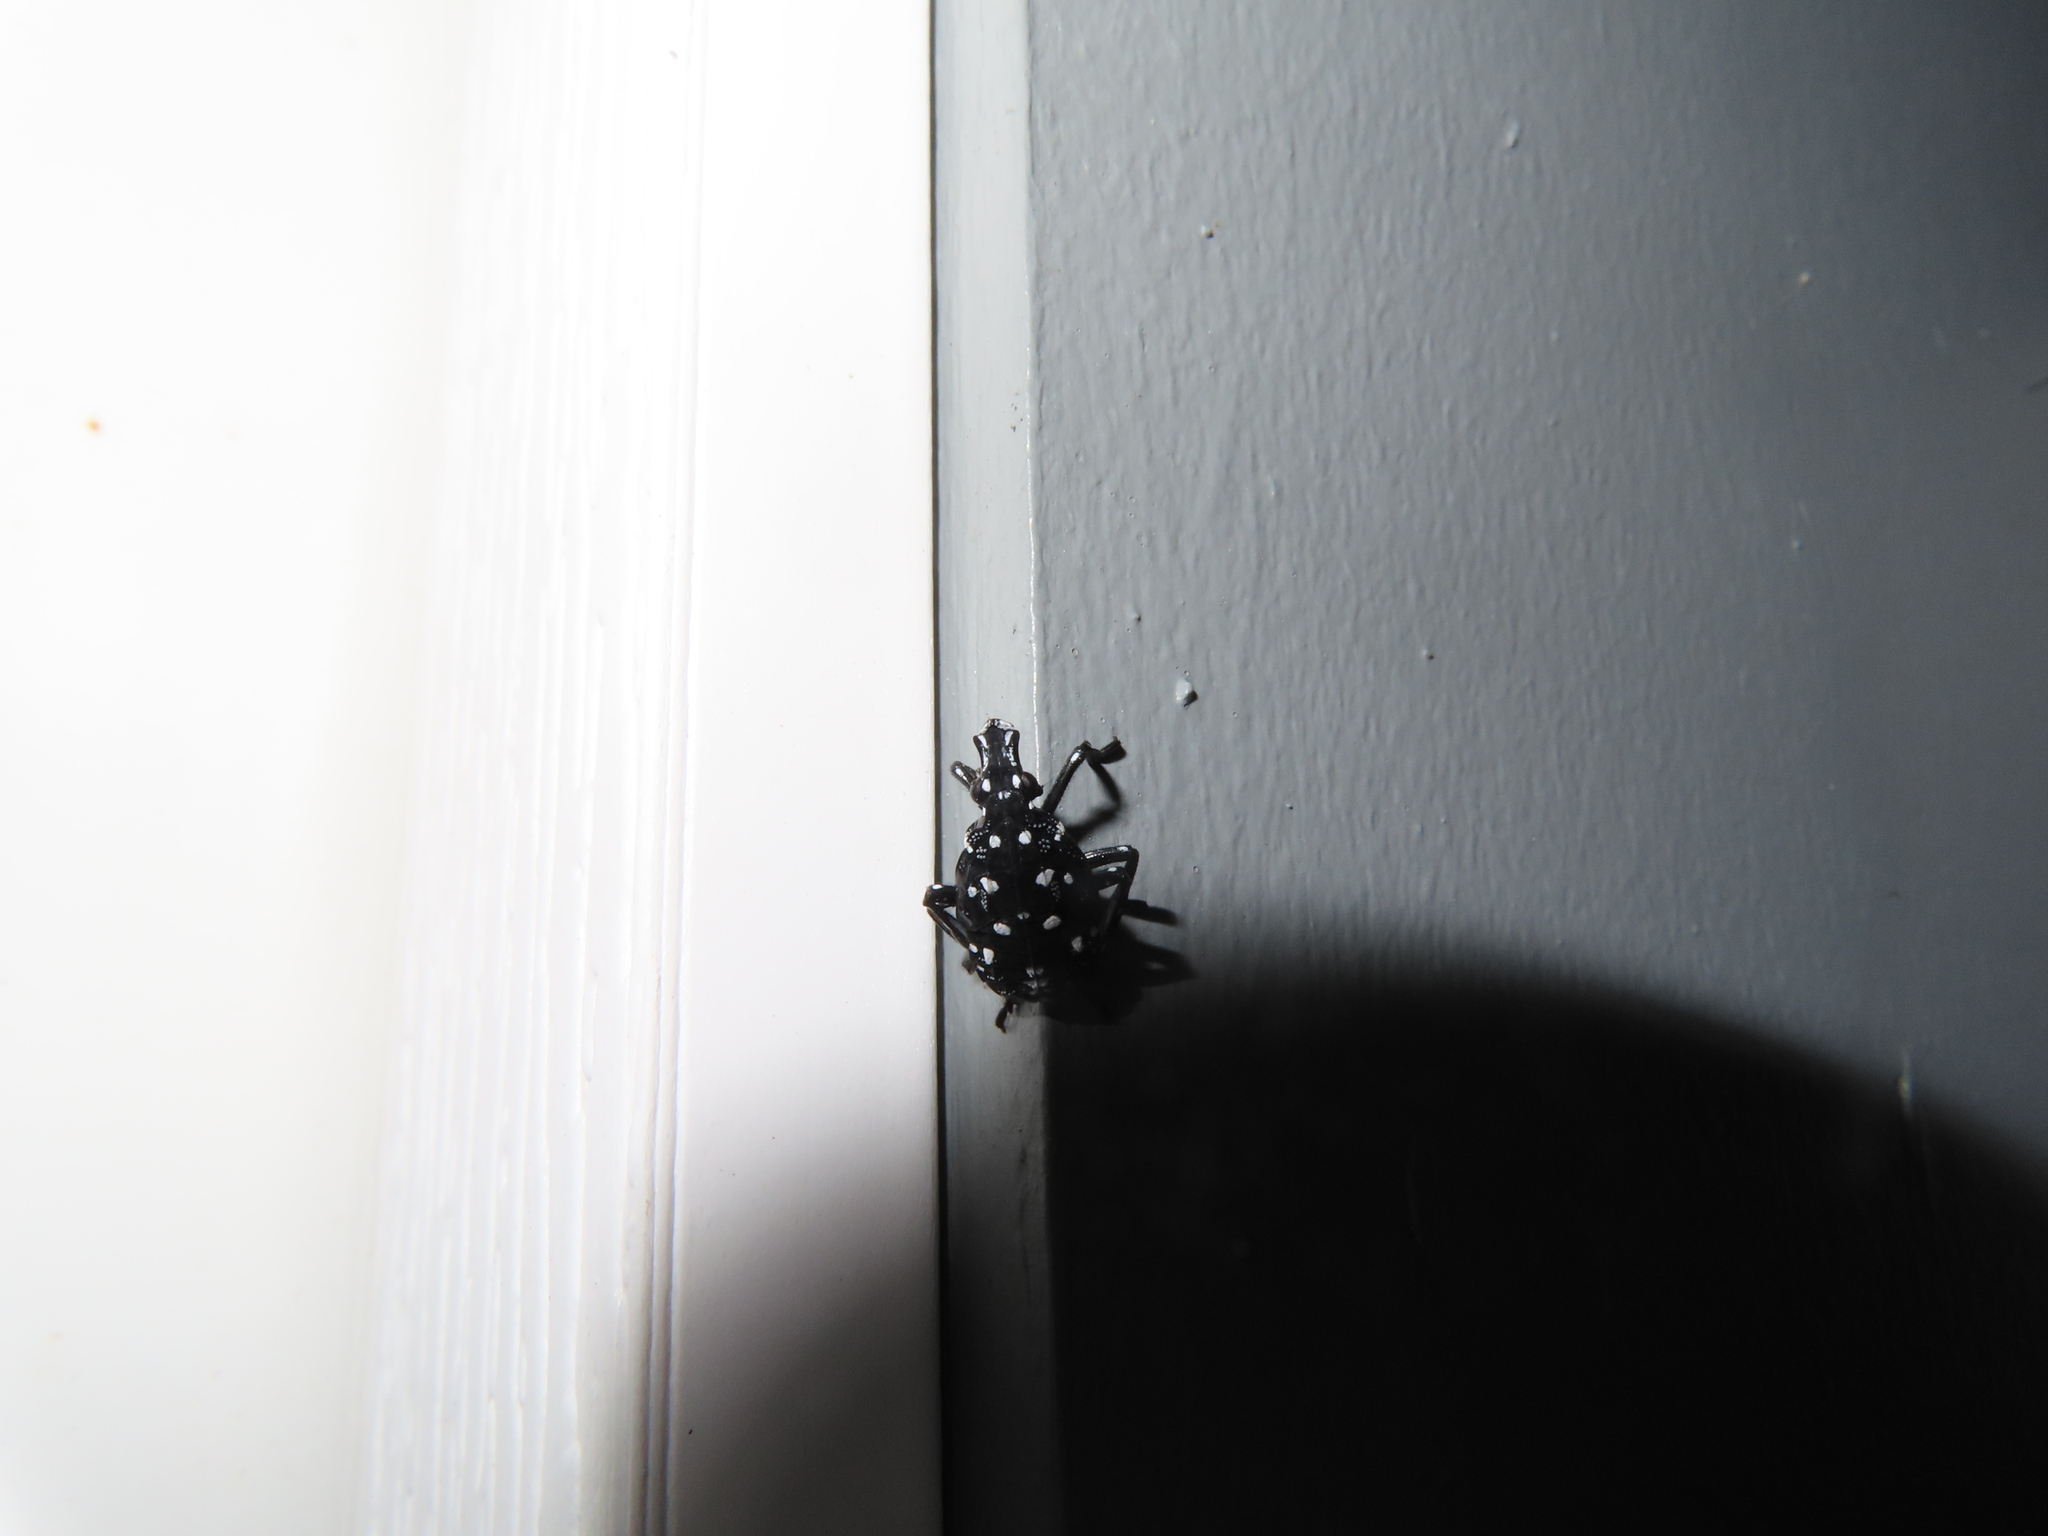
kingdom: Animalia
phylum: Arthropoda
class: Insecta
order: Hemiptera
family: Fulgoridae
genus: Lycorma
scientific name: Lycorma delicatula
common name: Spotted lanternfly
